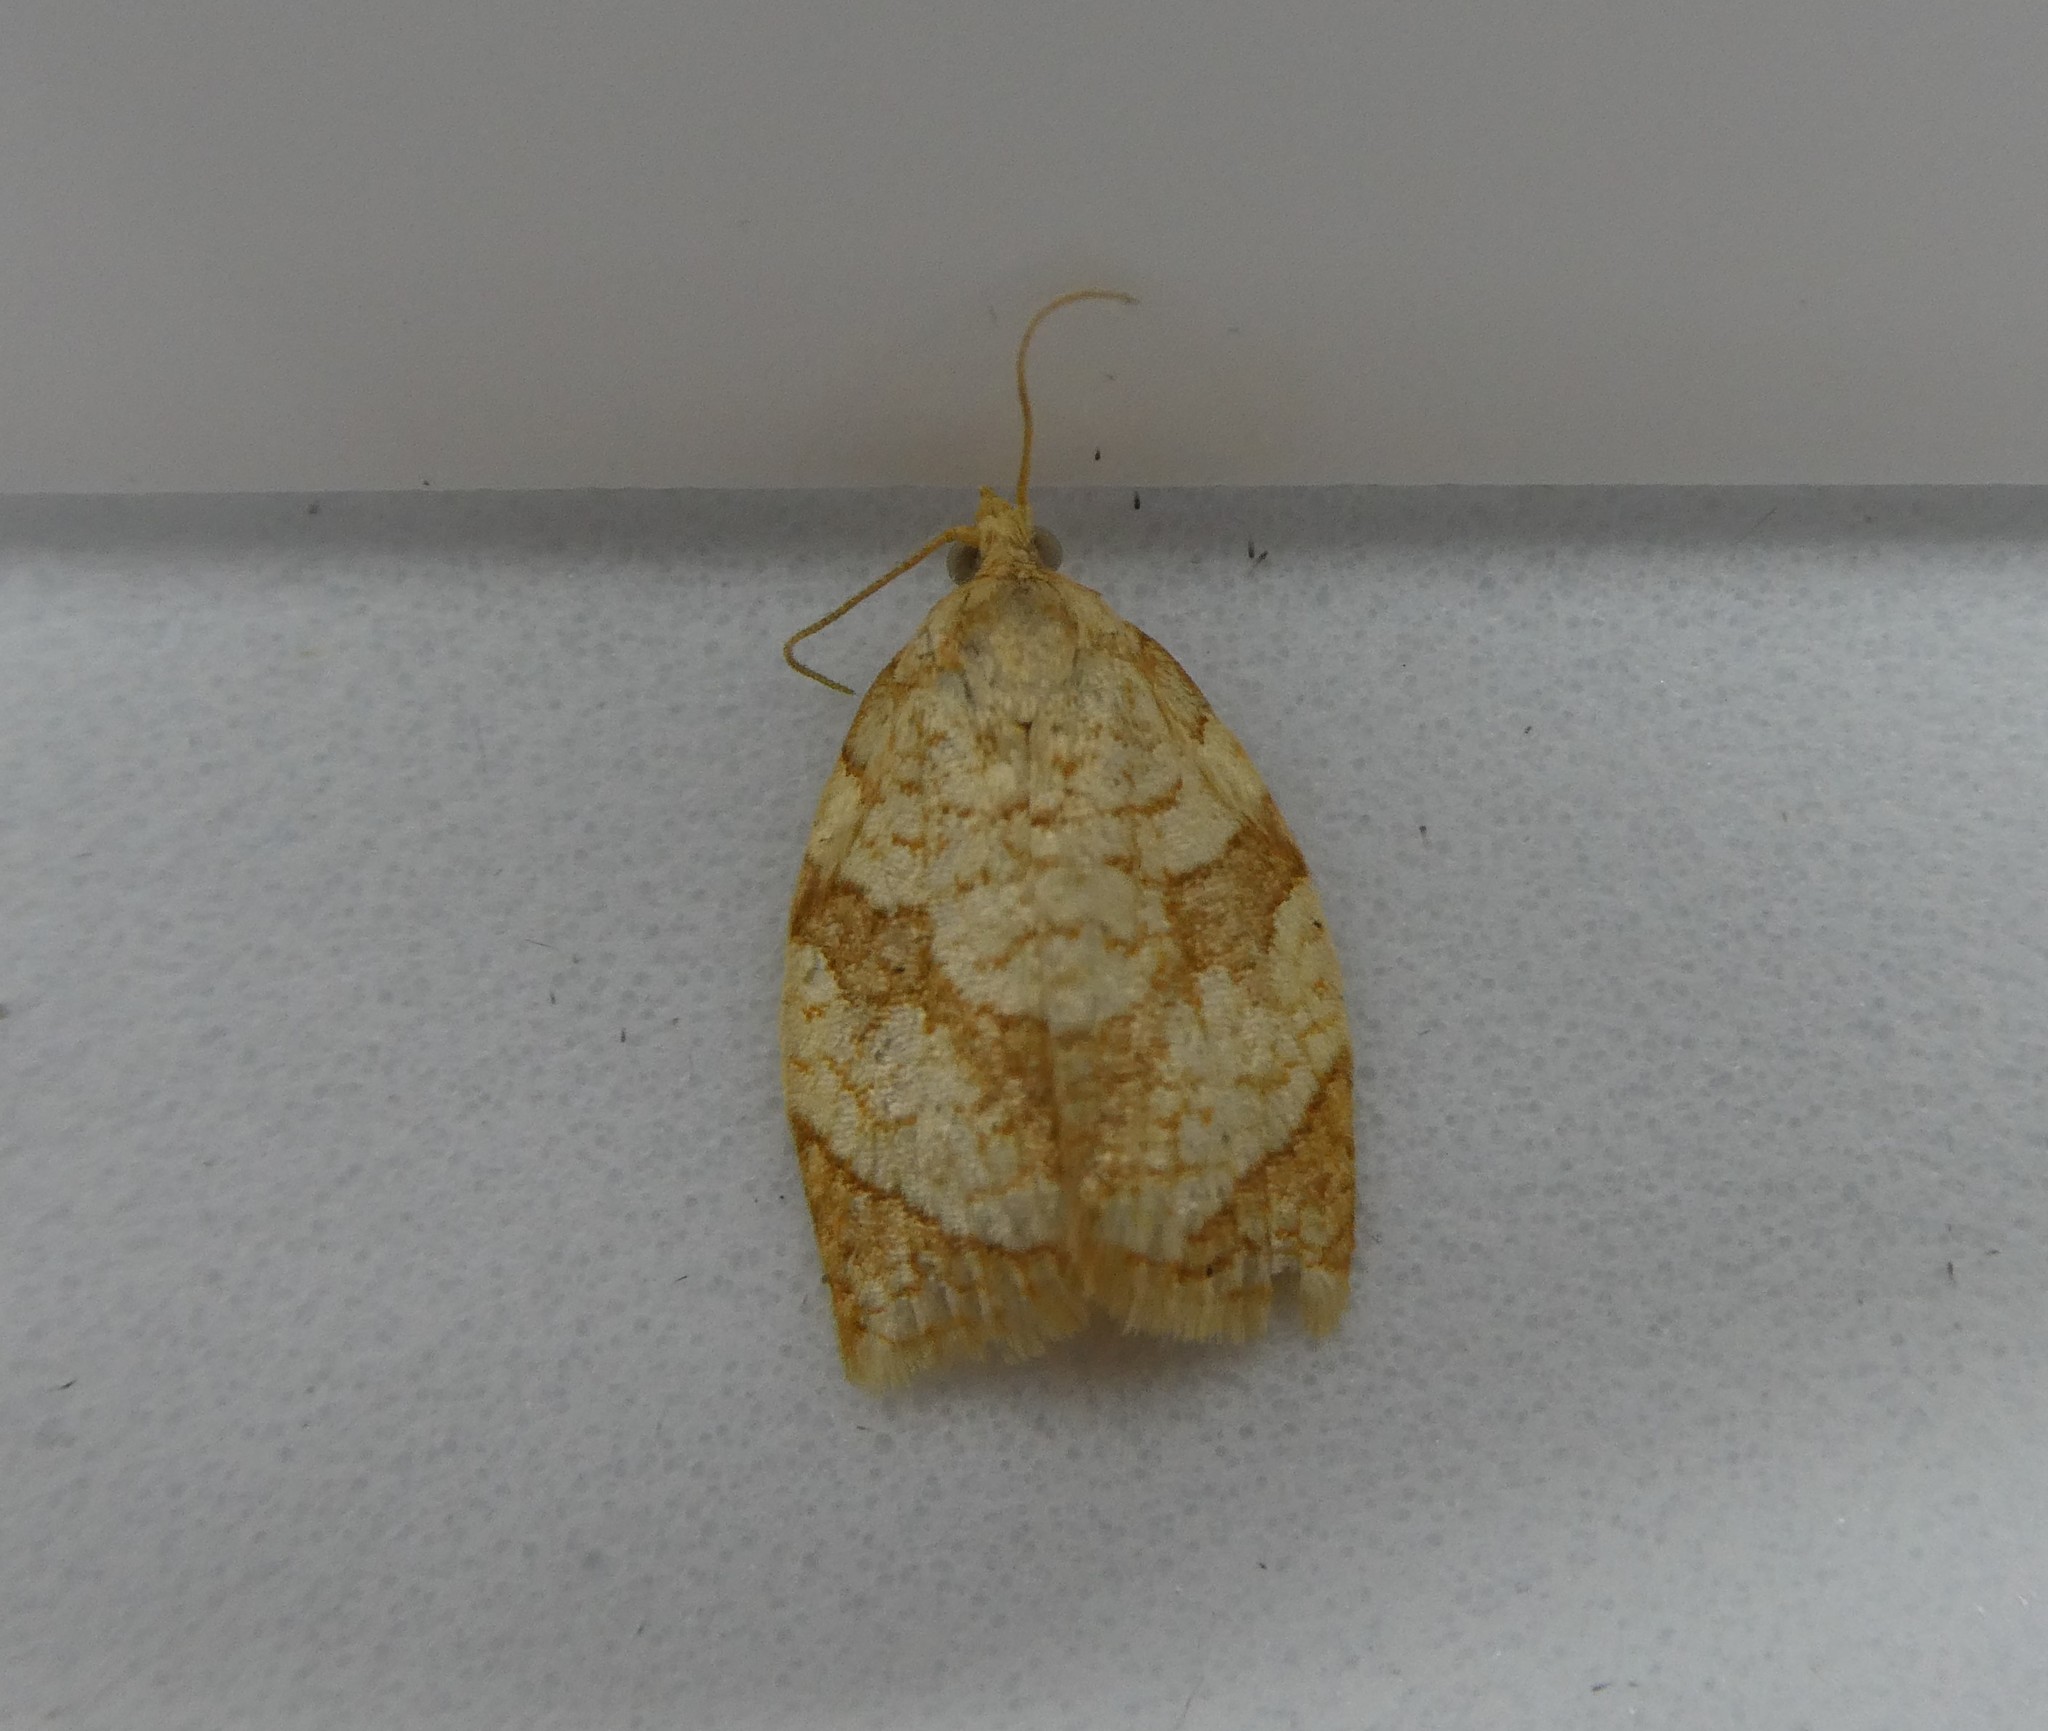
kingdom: Animalia
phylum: Arthropoda
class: Insecta
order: Lepidoptera
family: Tortricidae
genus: Adoxophyes
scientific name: Adoxophyes negundana
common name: Shimmering gold adoxophyes moth
